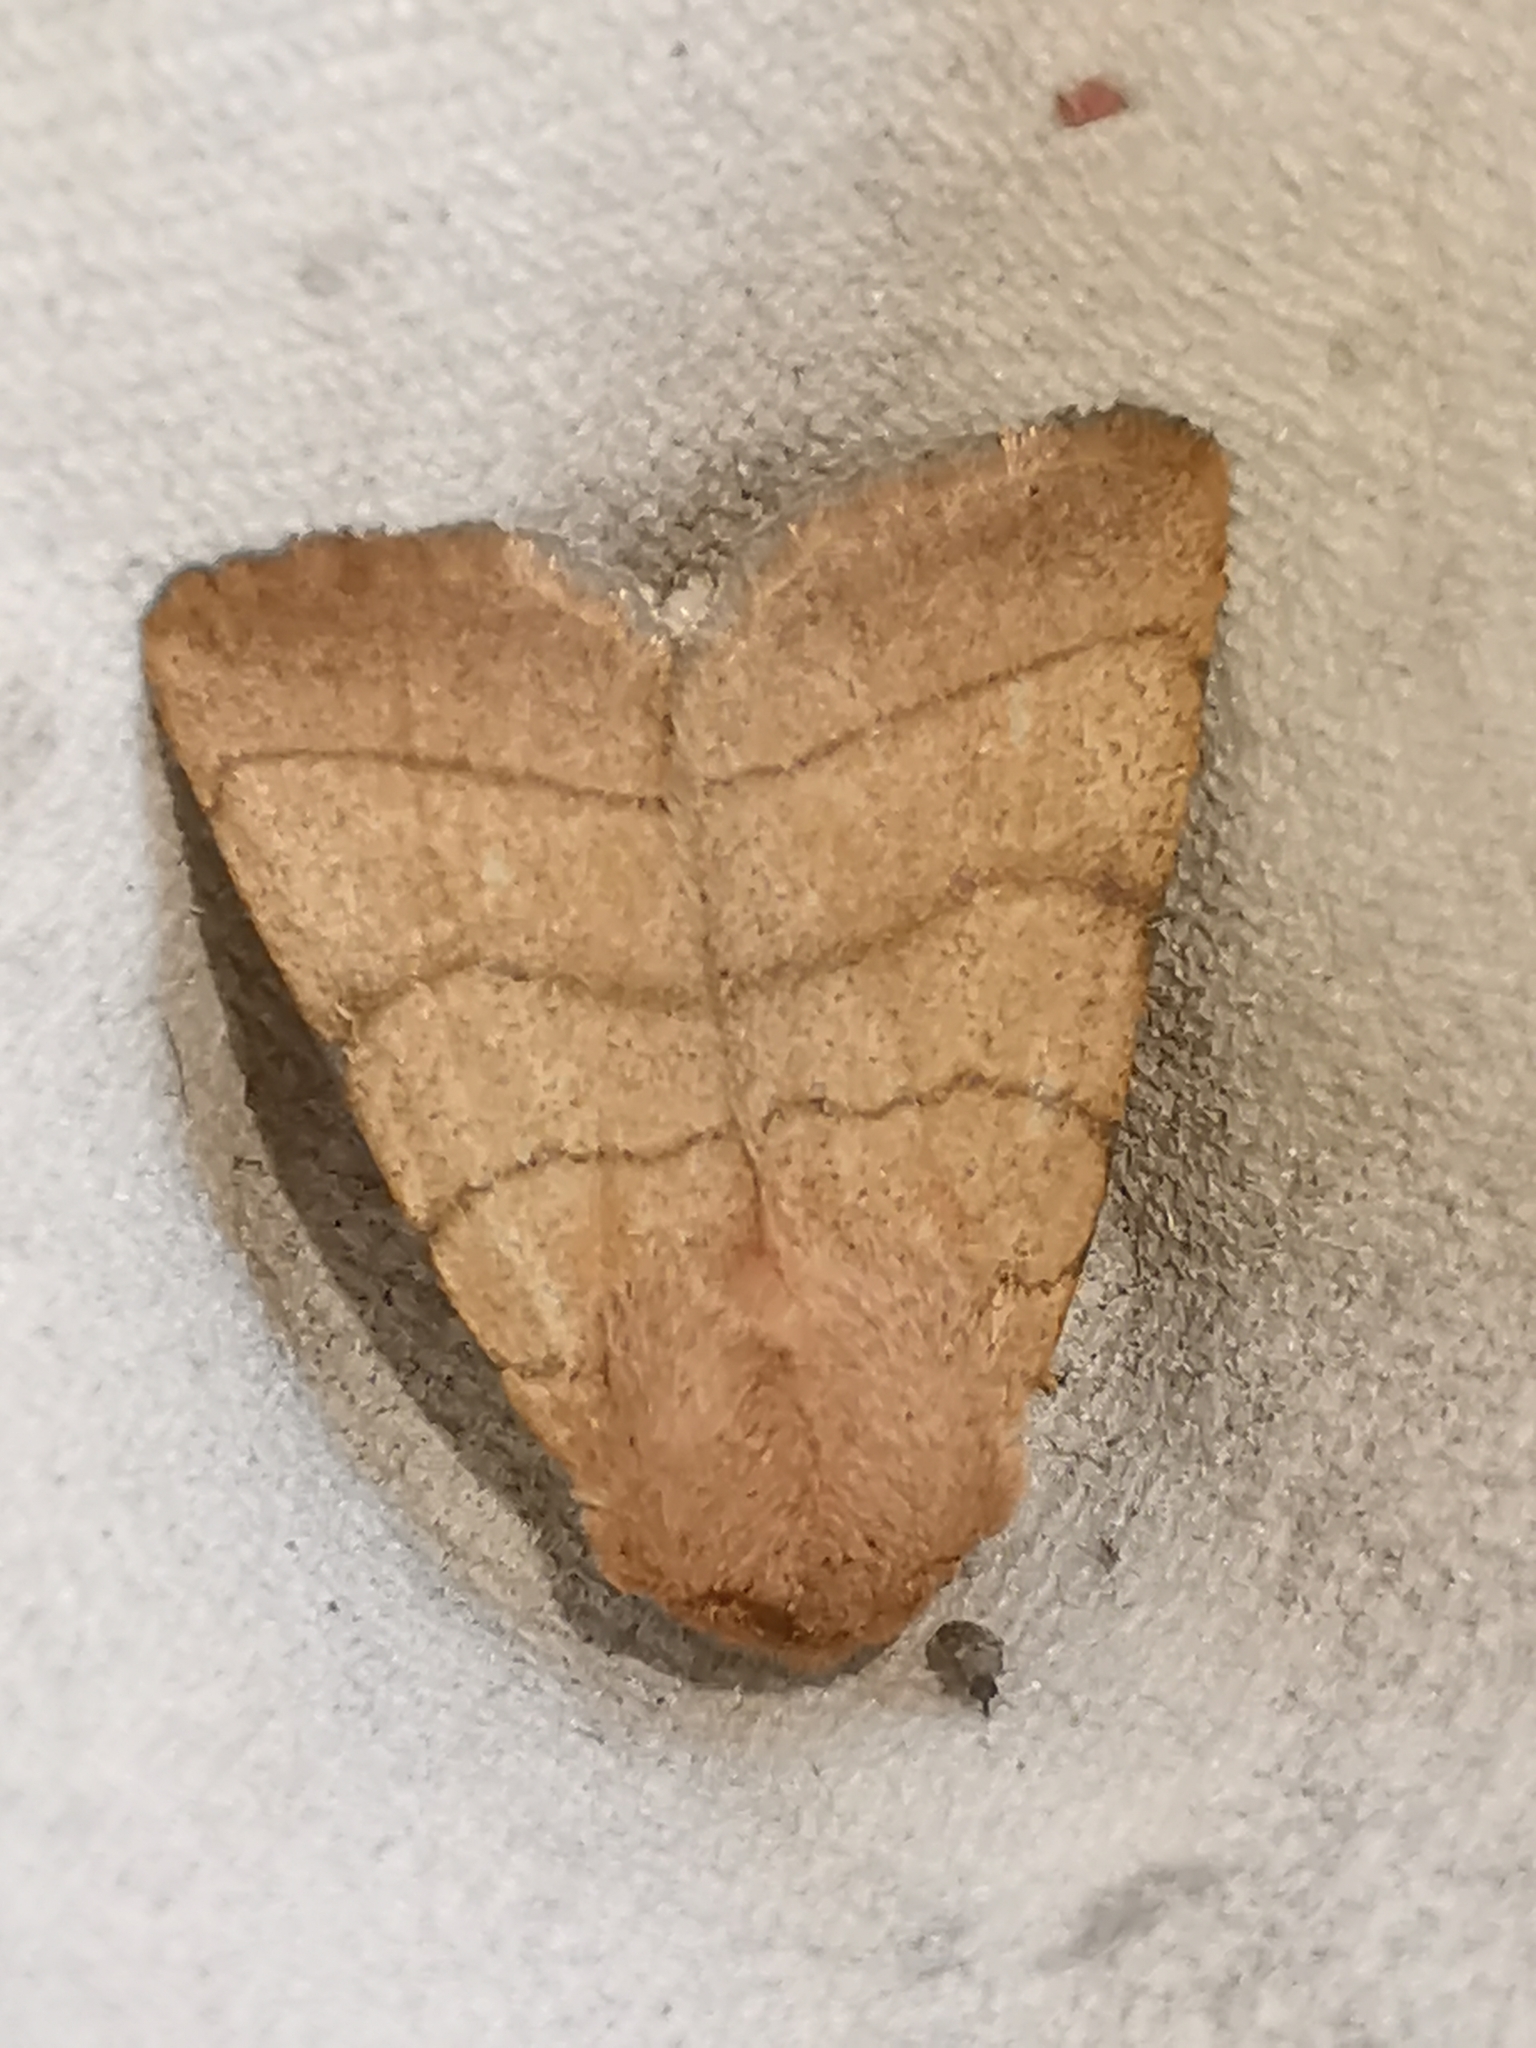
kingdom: Animalia
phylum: Arthropoda
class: Insecta
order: Lepidoptera
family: Noctuidae
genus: Charanyca
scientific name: Charanyca trigrammica
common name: Treble lines
